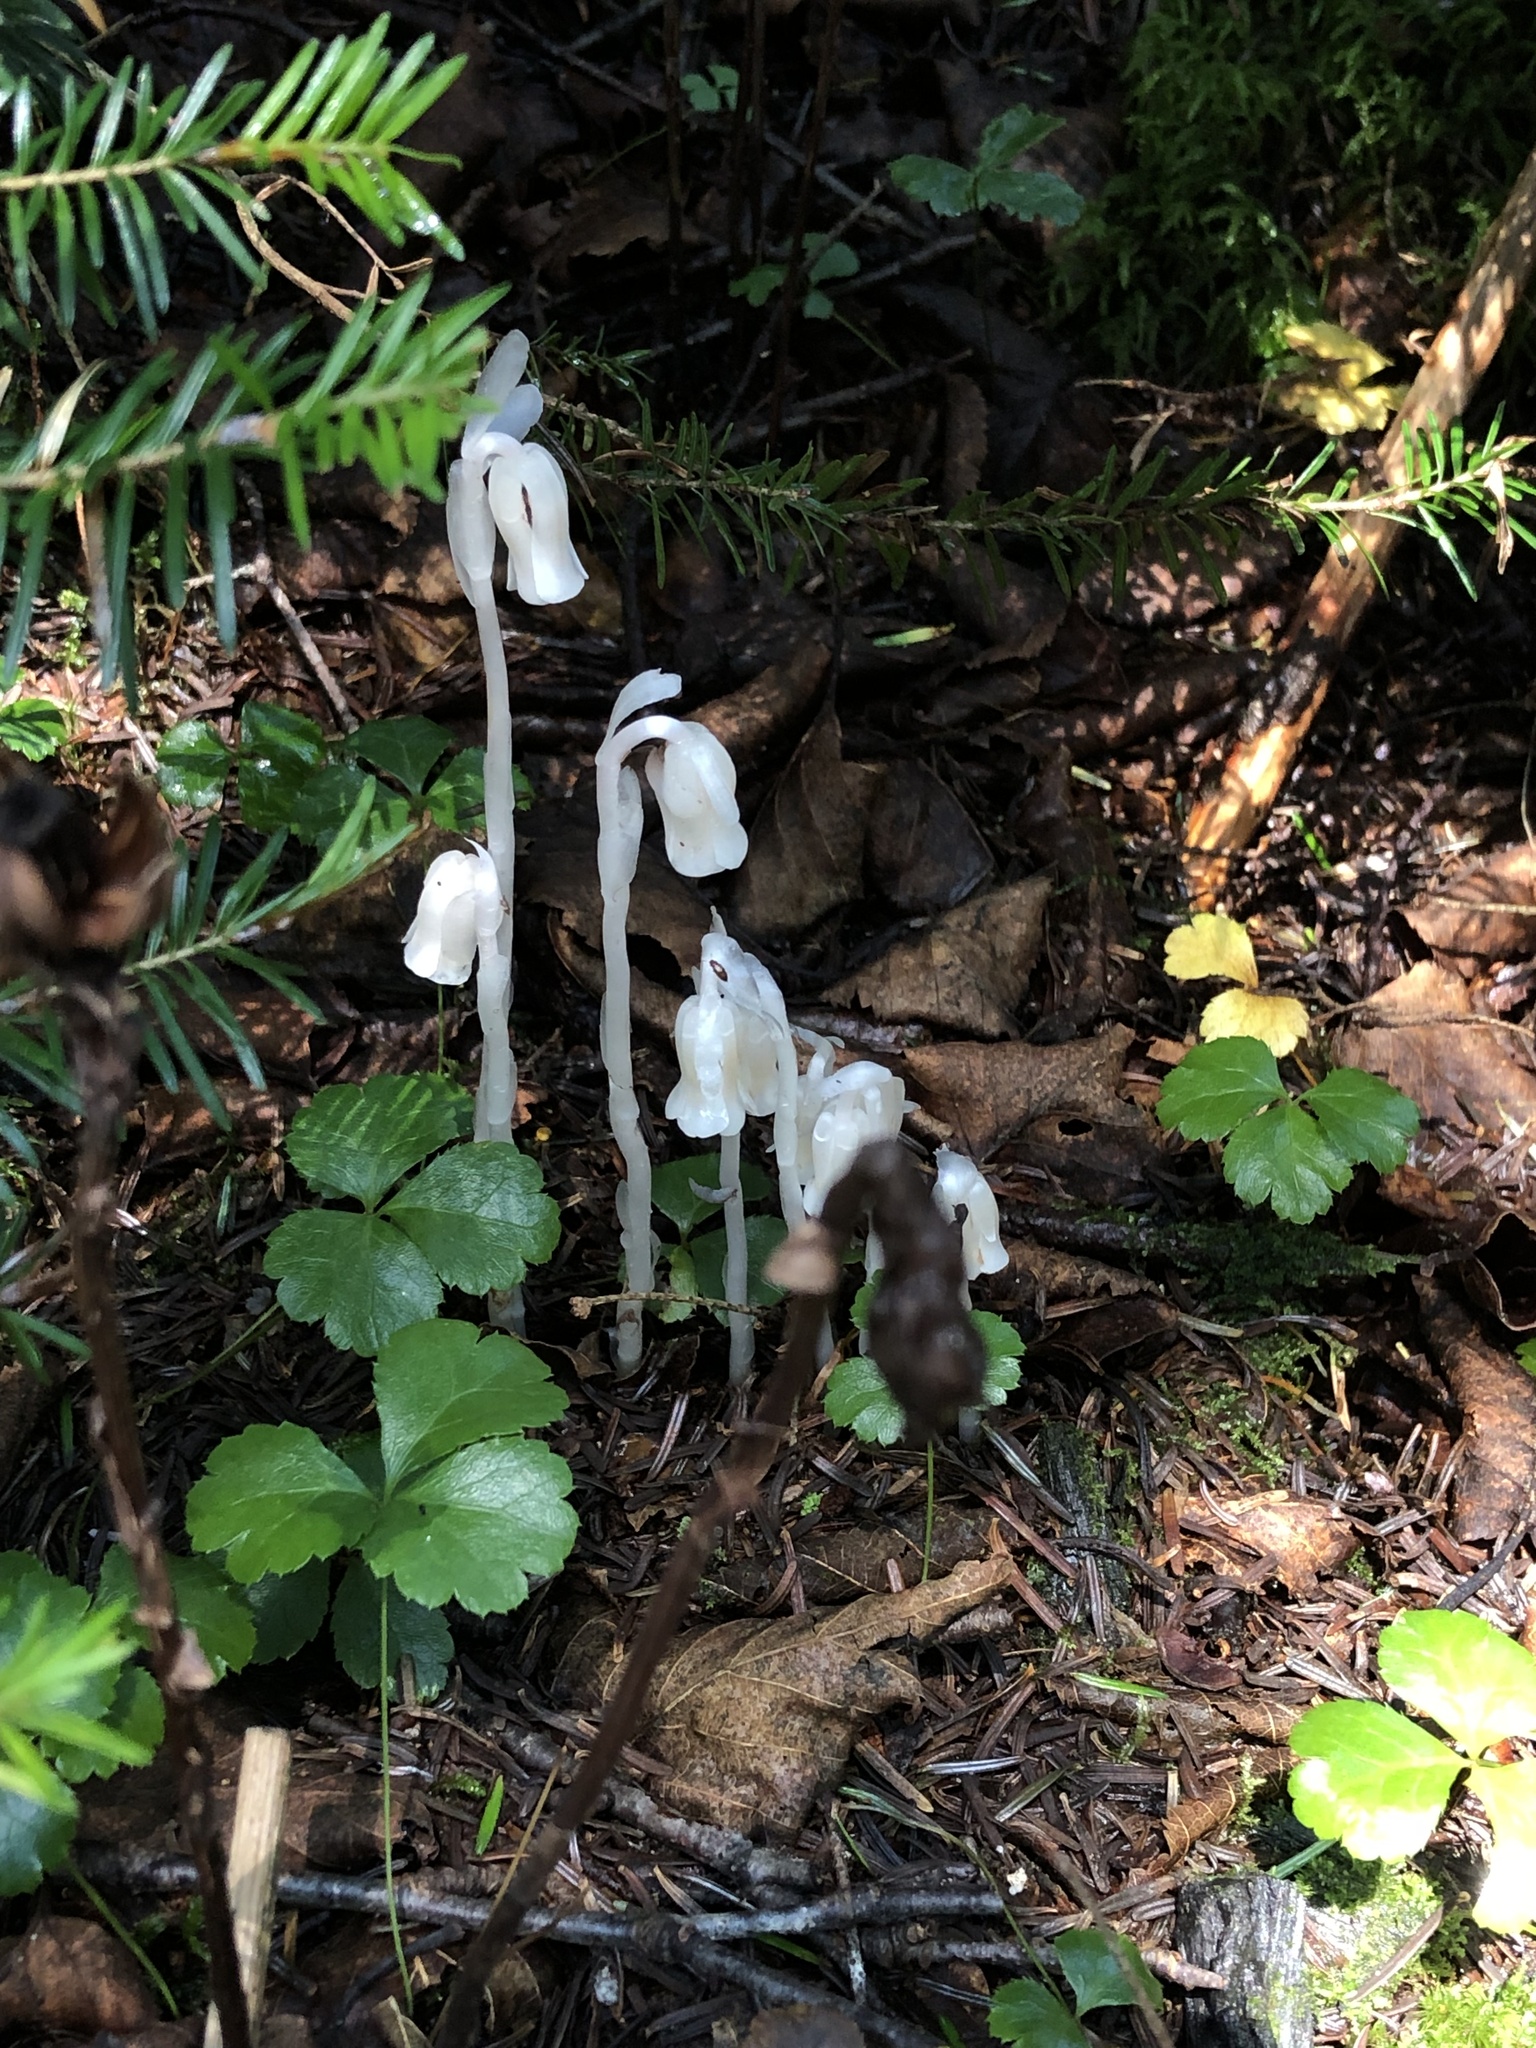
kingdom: Plantae
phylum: Tracheophyta
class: Magnoliopsida
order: Ericales
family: Ericaceae
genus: Monotropa
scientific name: Monotropa uniflora
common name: Convulsion root
